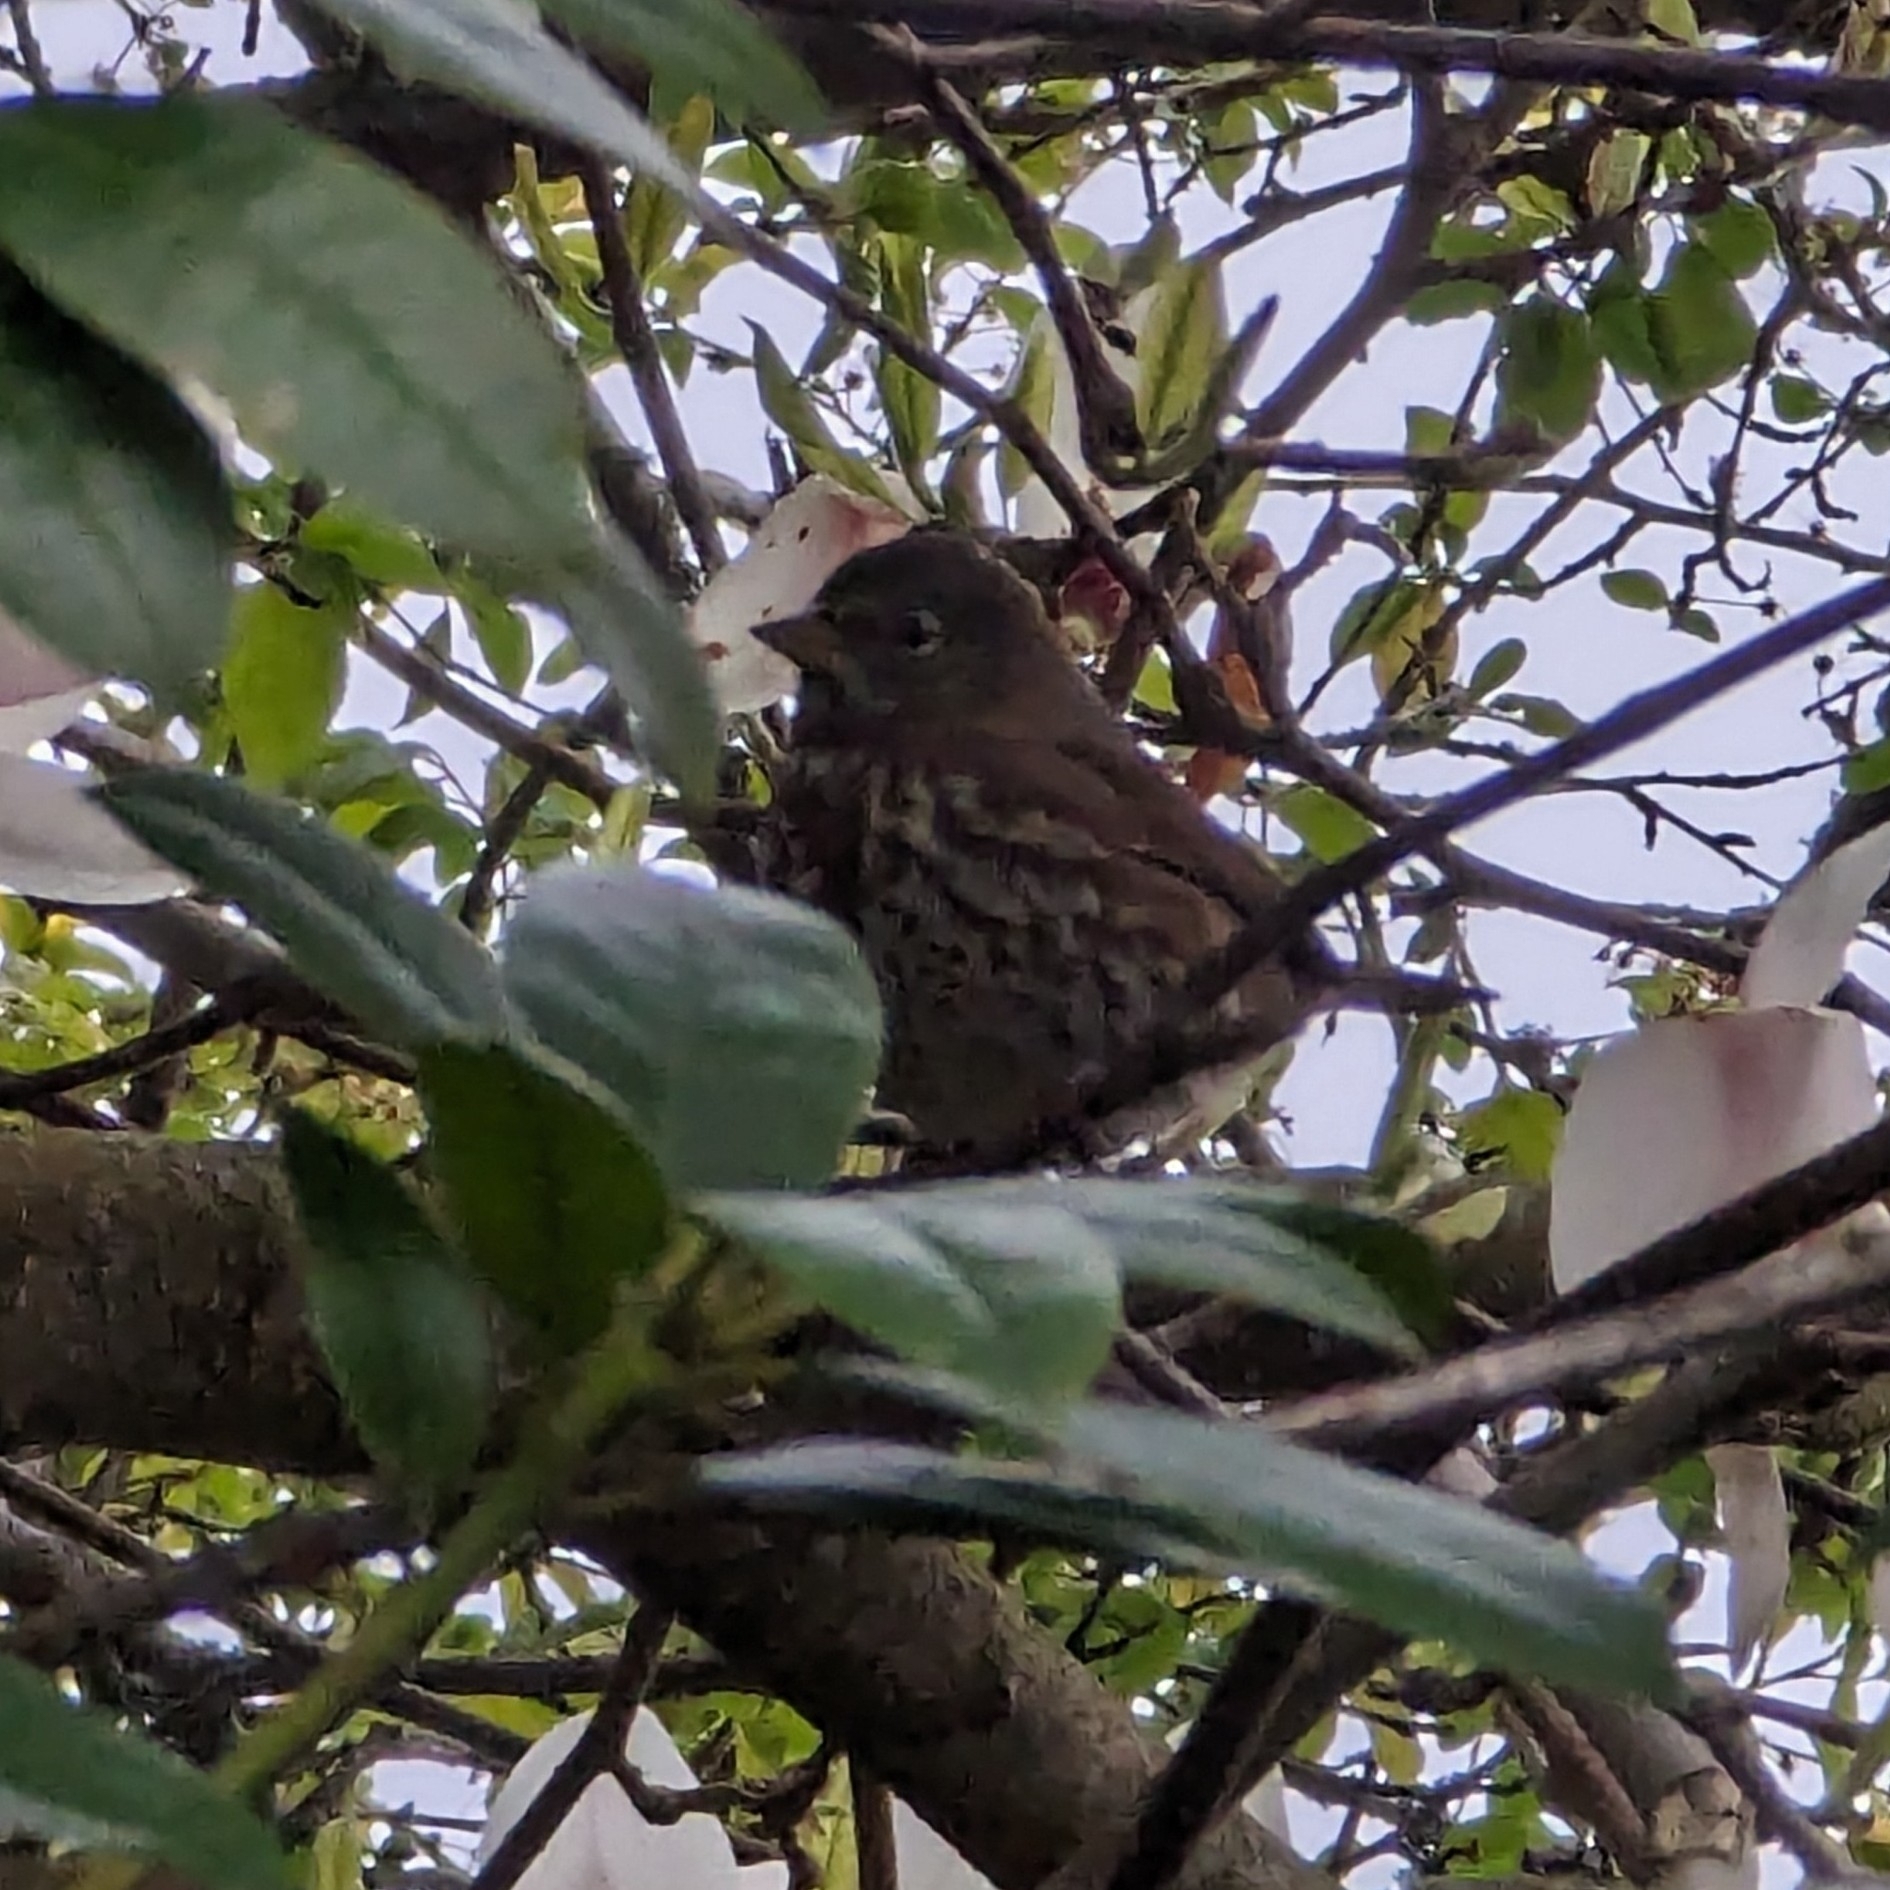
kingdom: Animalia
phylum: Chordata
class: Aves
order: Passeriformes
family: Passerellidae
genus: Passerella
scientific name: Passerella iliaca
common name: Fox sparrow
